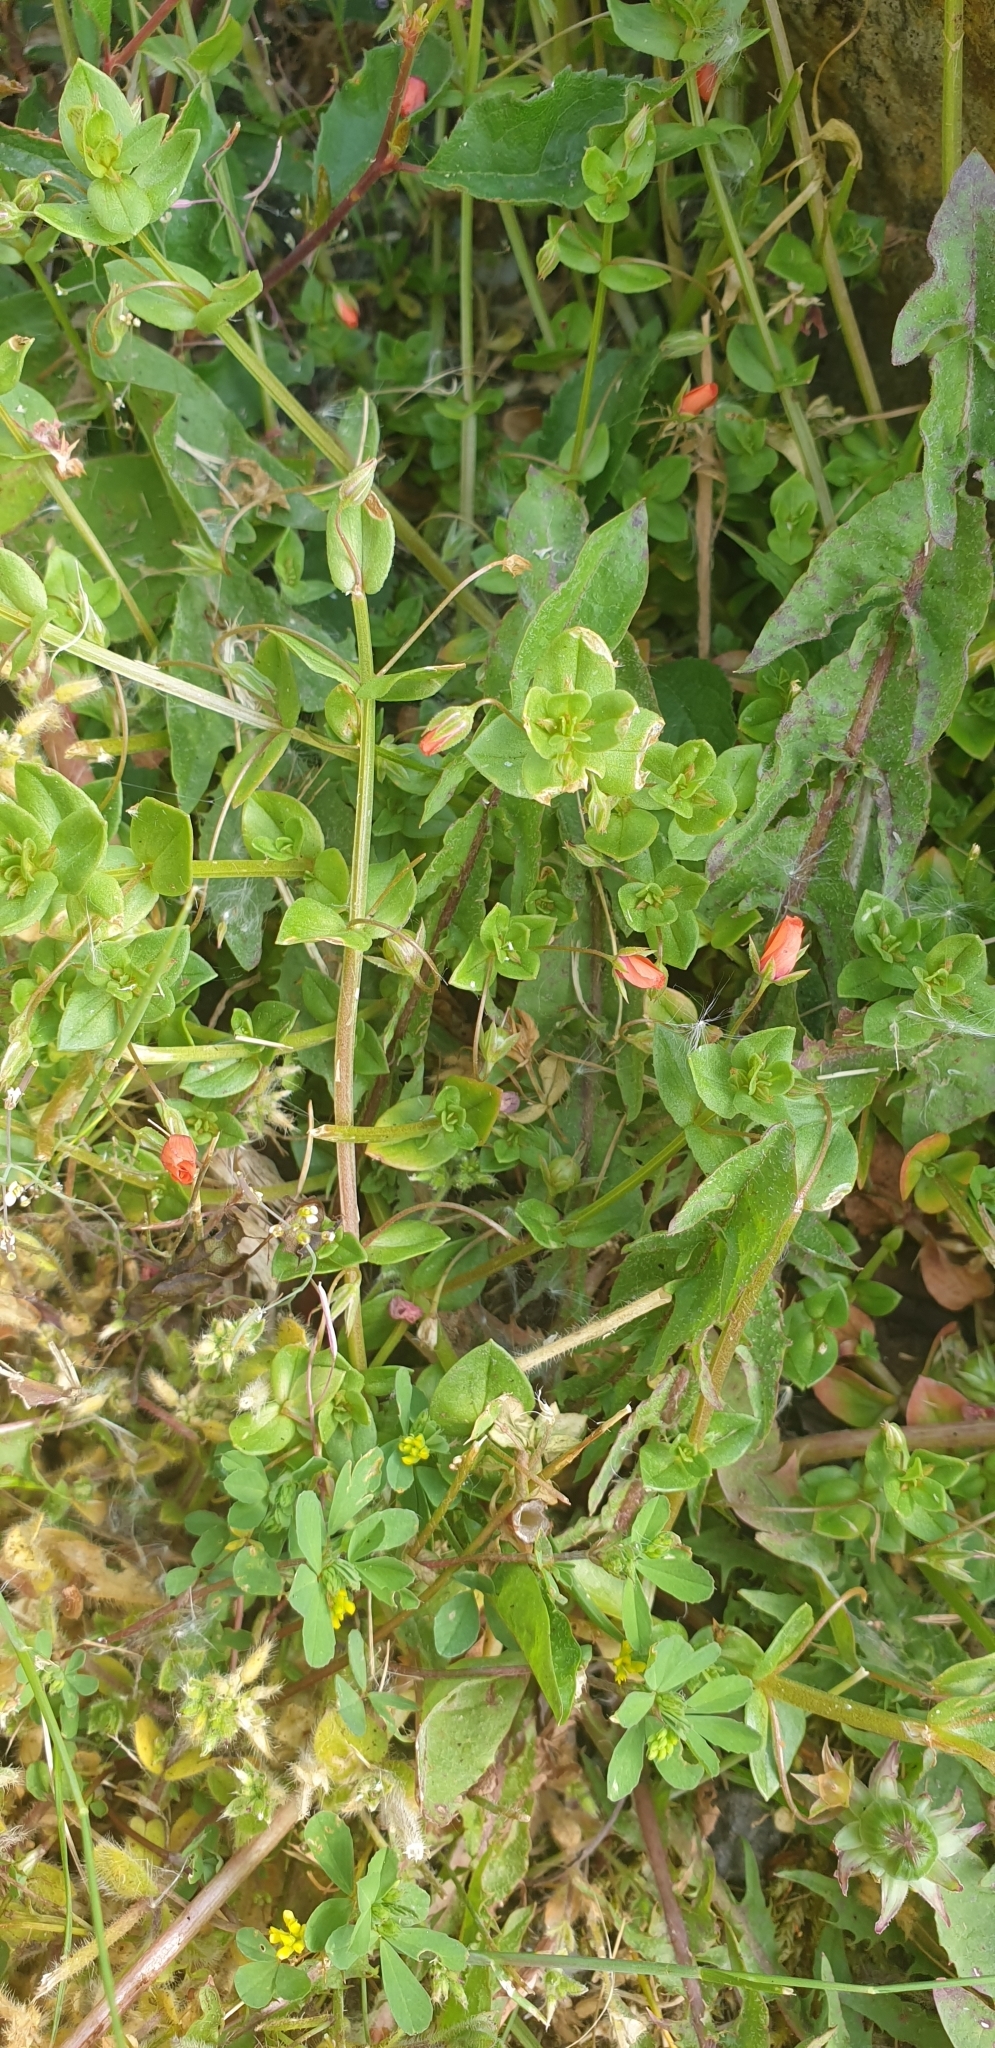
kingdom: Plantae
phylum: Tracheophyta
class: Magnoliopsida
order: Ericales
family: Primulaceae
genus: Lysimachia
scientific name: Lysimachia arvensis
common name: Scarlet pimpernel
